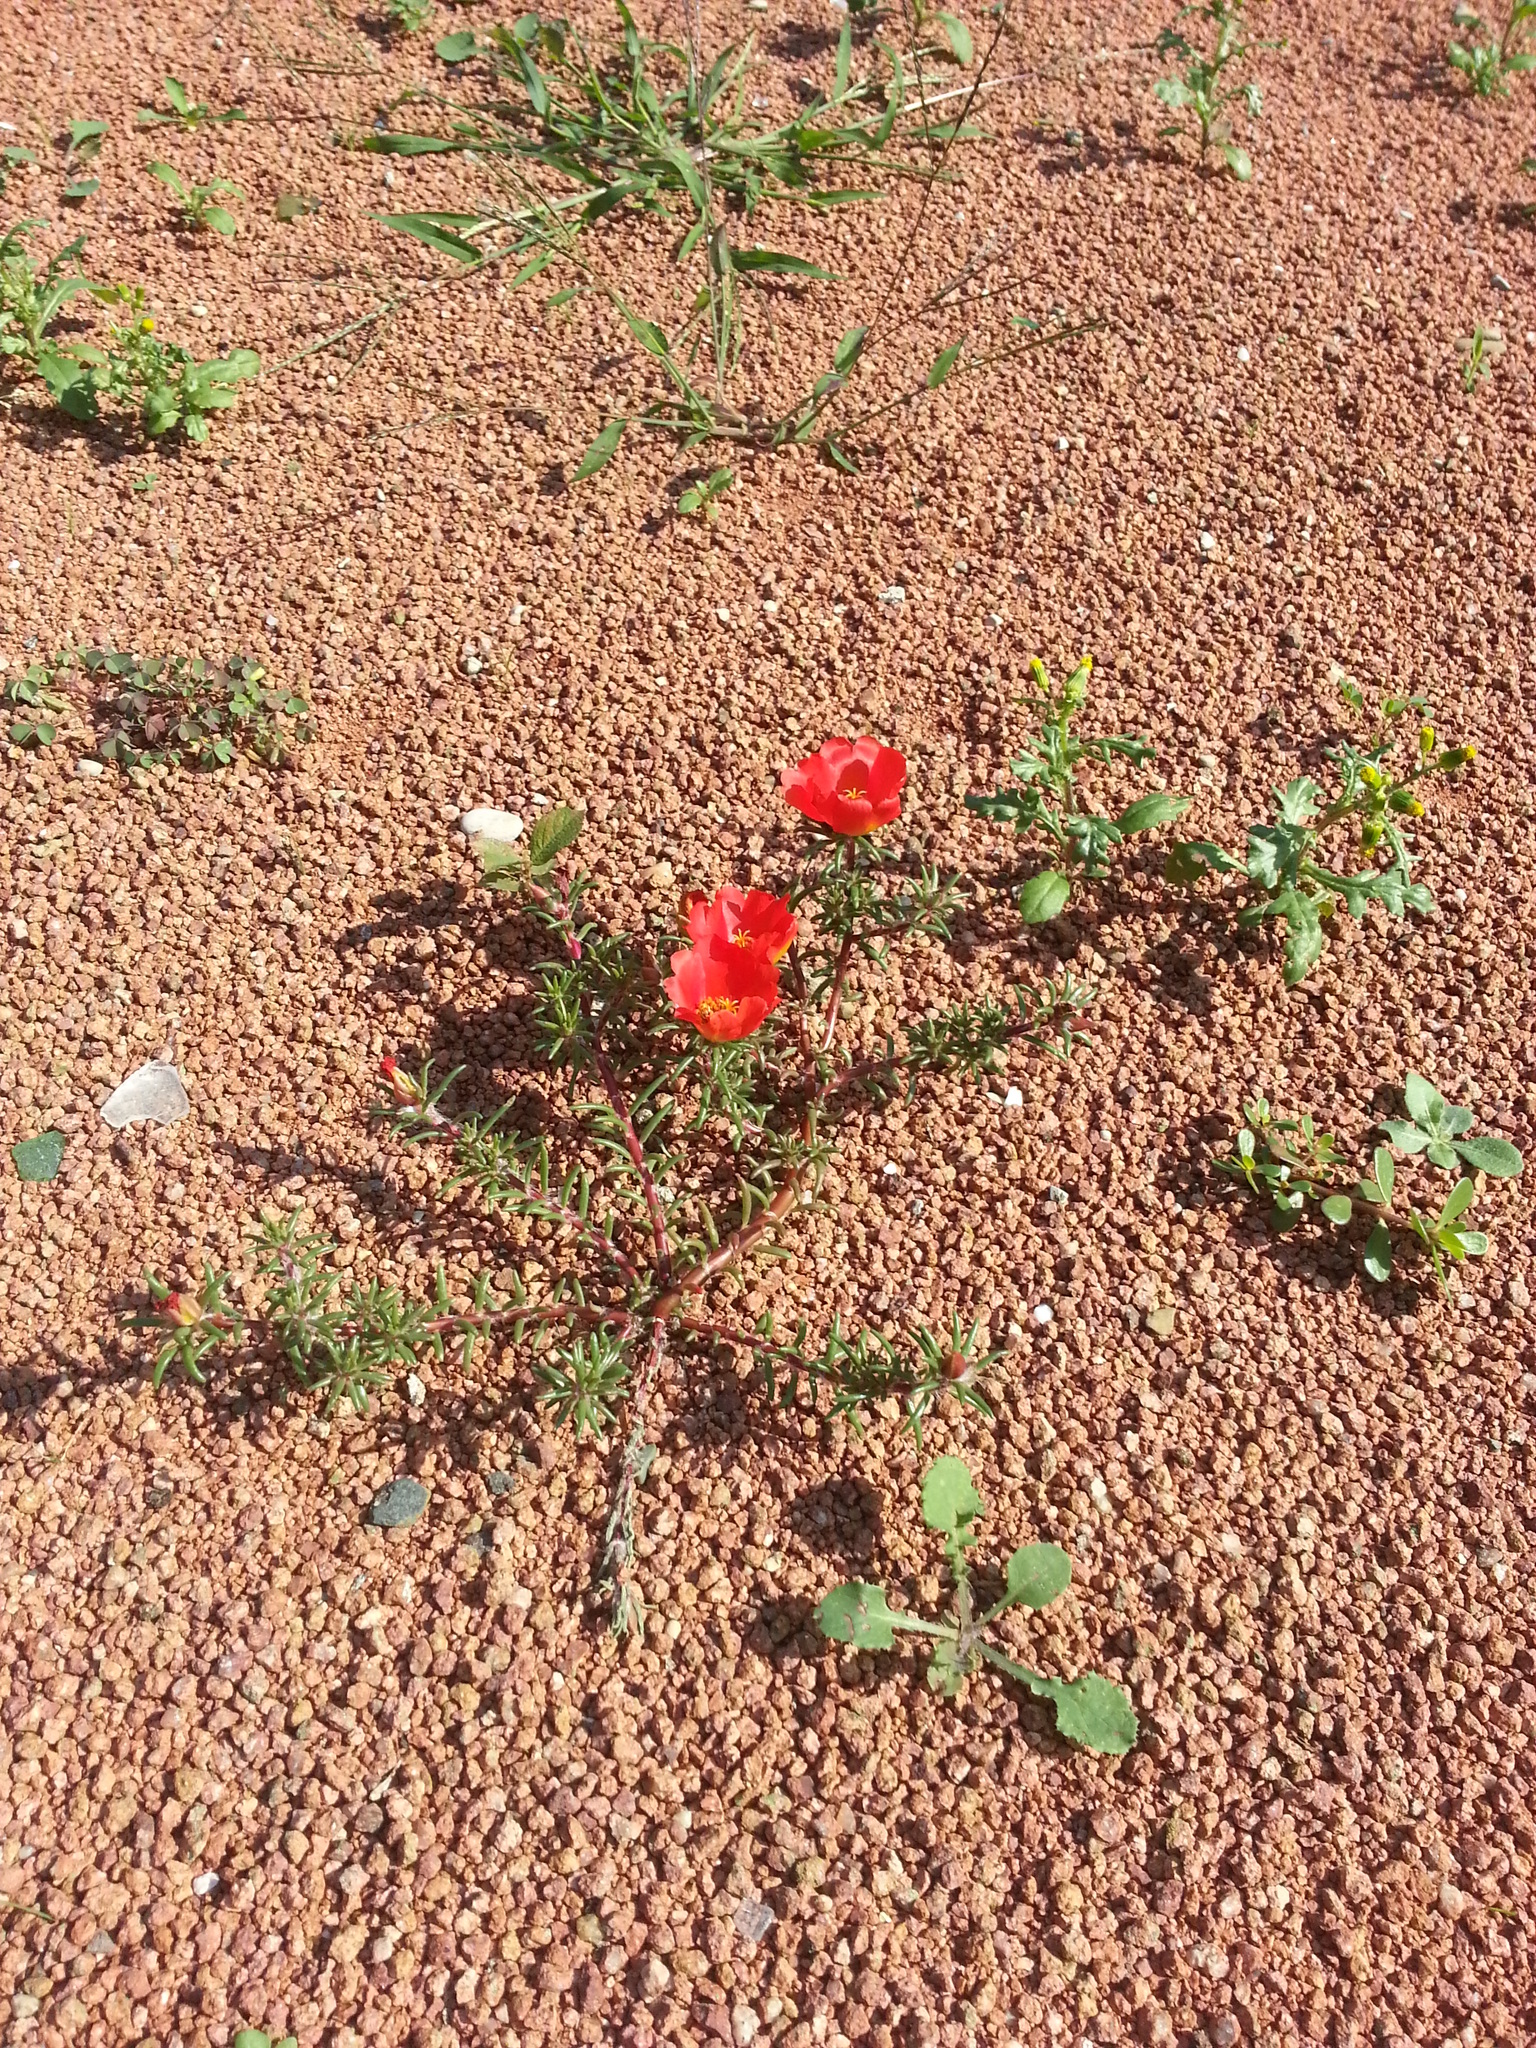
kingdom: Plantae
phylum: Tracheophyta
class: Magnoliopsida
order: Caryophyllales
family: Portulacaceae
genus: Portulaca
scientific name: Portulaca grandiflora
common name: Moss-rose
